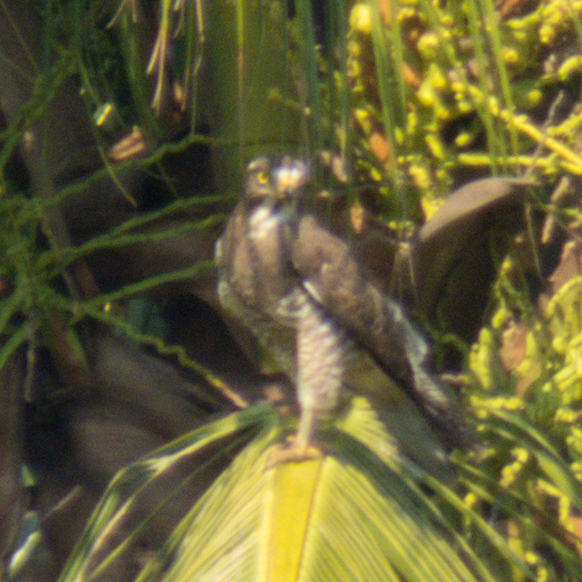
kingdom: Animalia
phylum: Chordata
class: Aves
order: Accipitriformes
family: Accipitridae
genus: Butastur
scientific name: Butastur indicus
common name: Grey-faced buzzard
